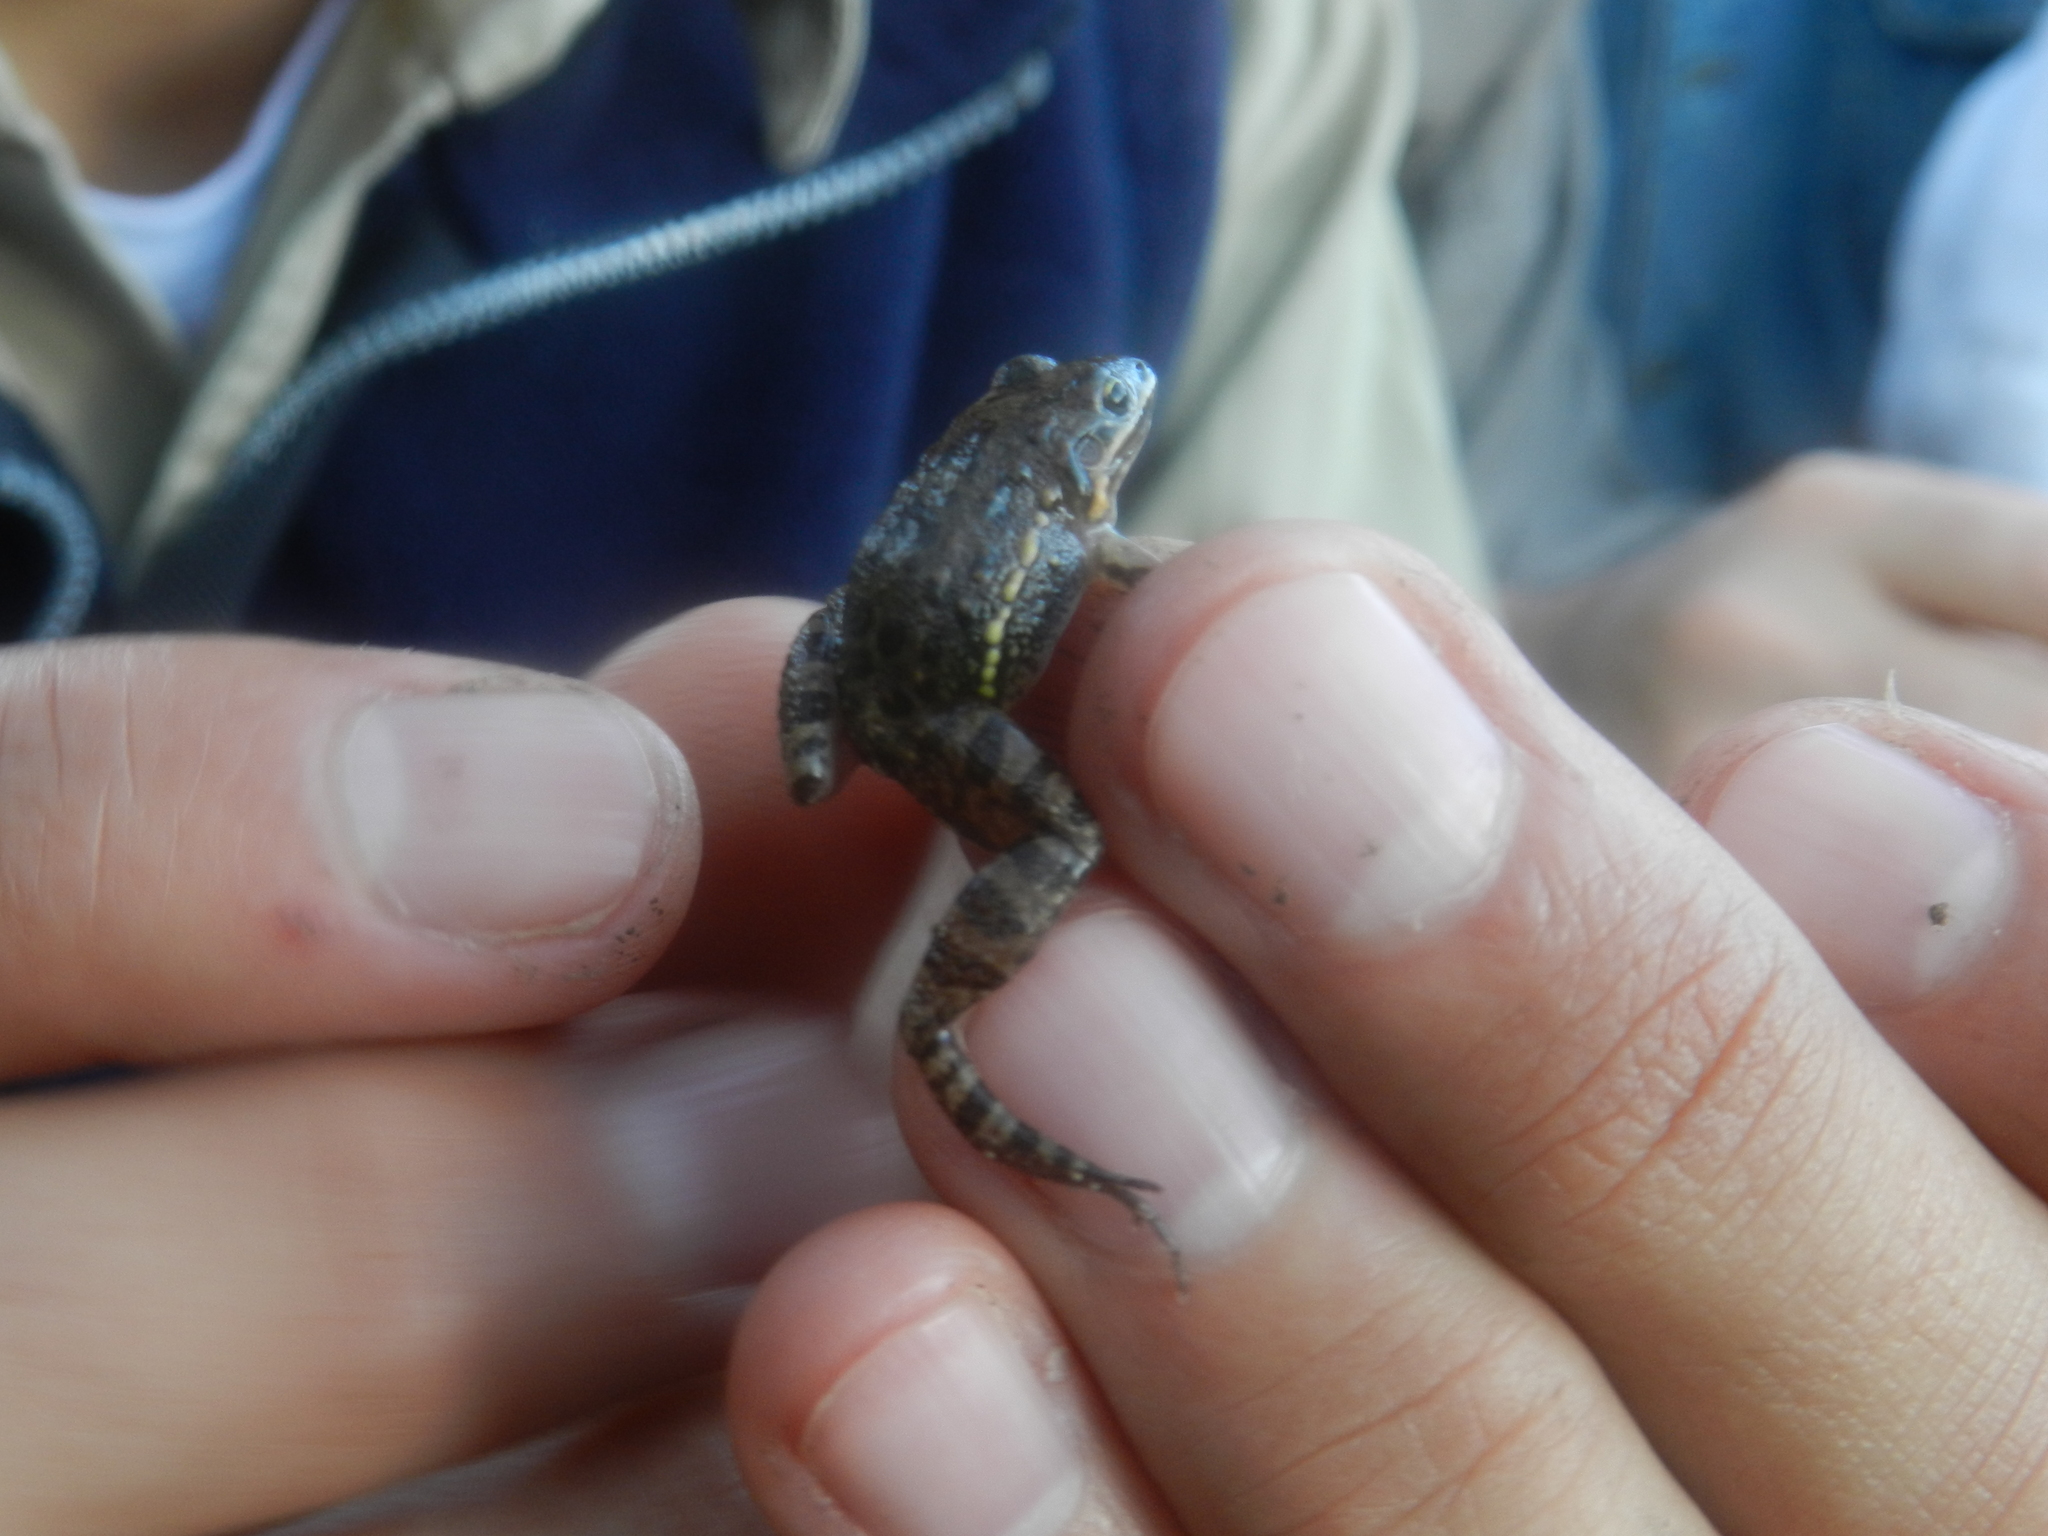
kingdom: Animalia
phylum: Chordata
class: Amphibia
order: Anura
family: Leptodactylidae
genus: Leptodactylus
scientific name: Leptodactylus latinasus
